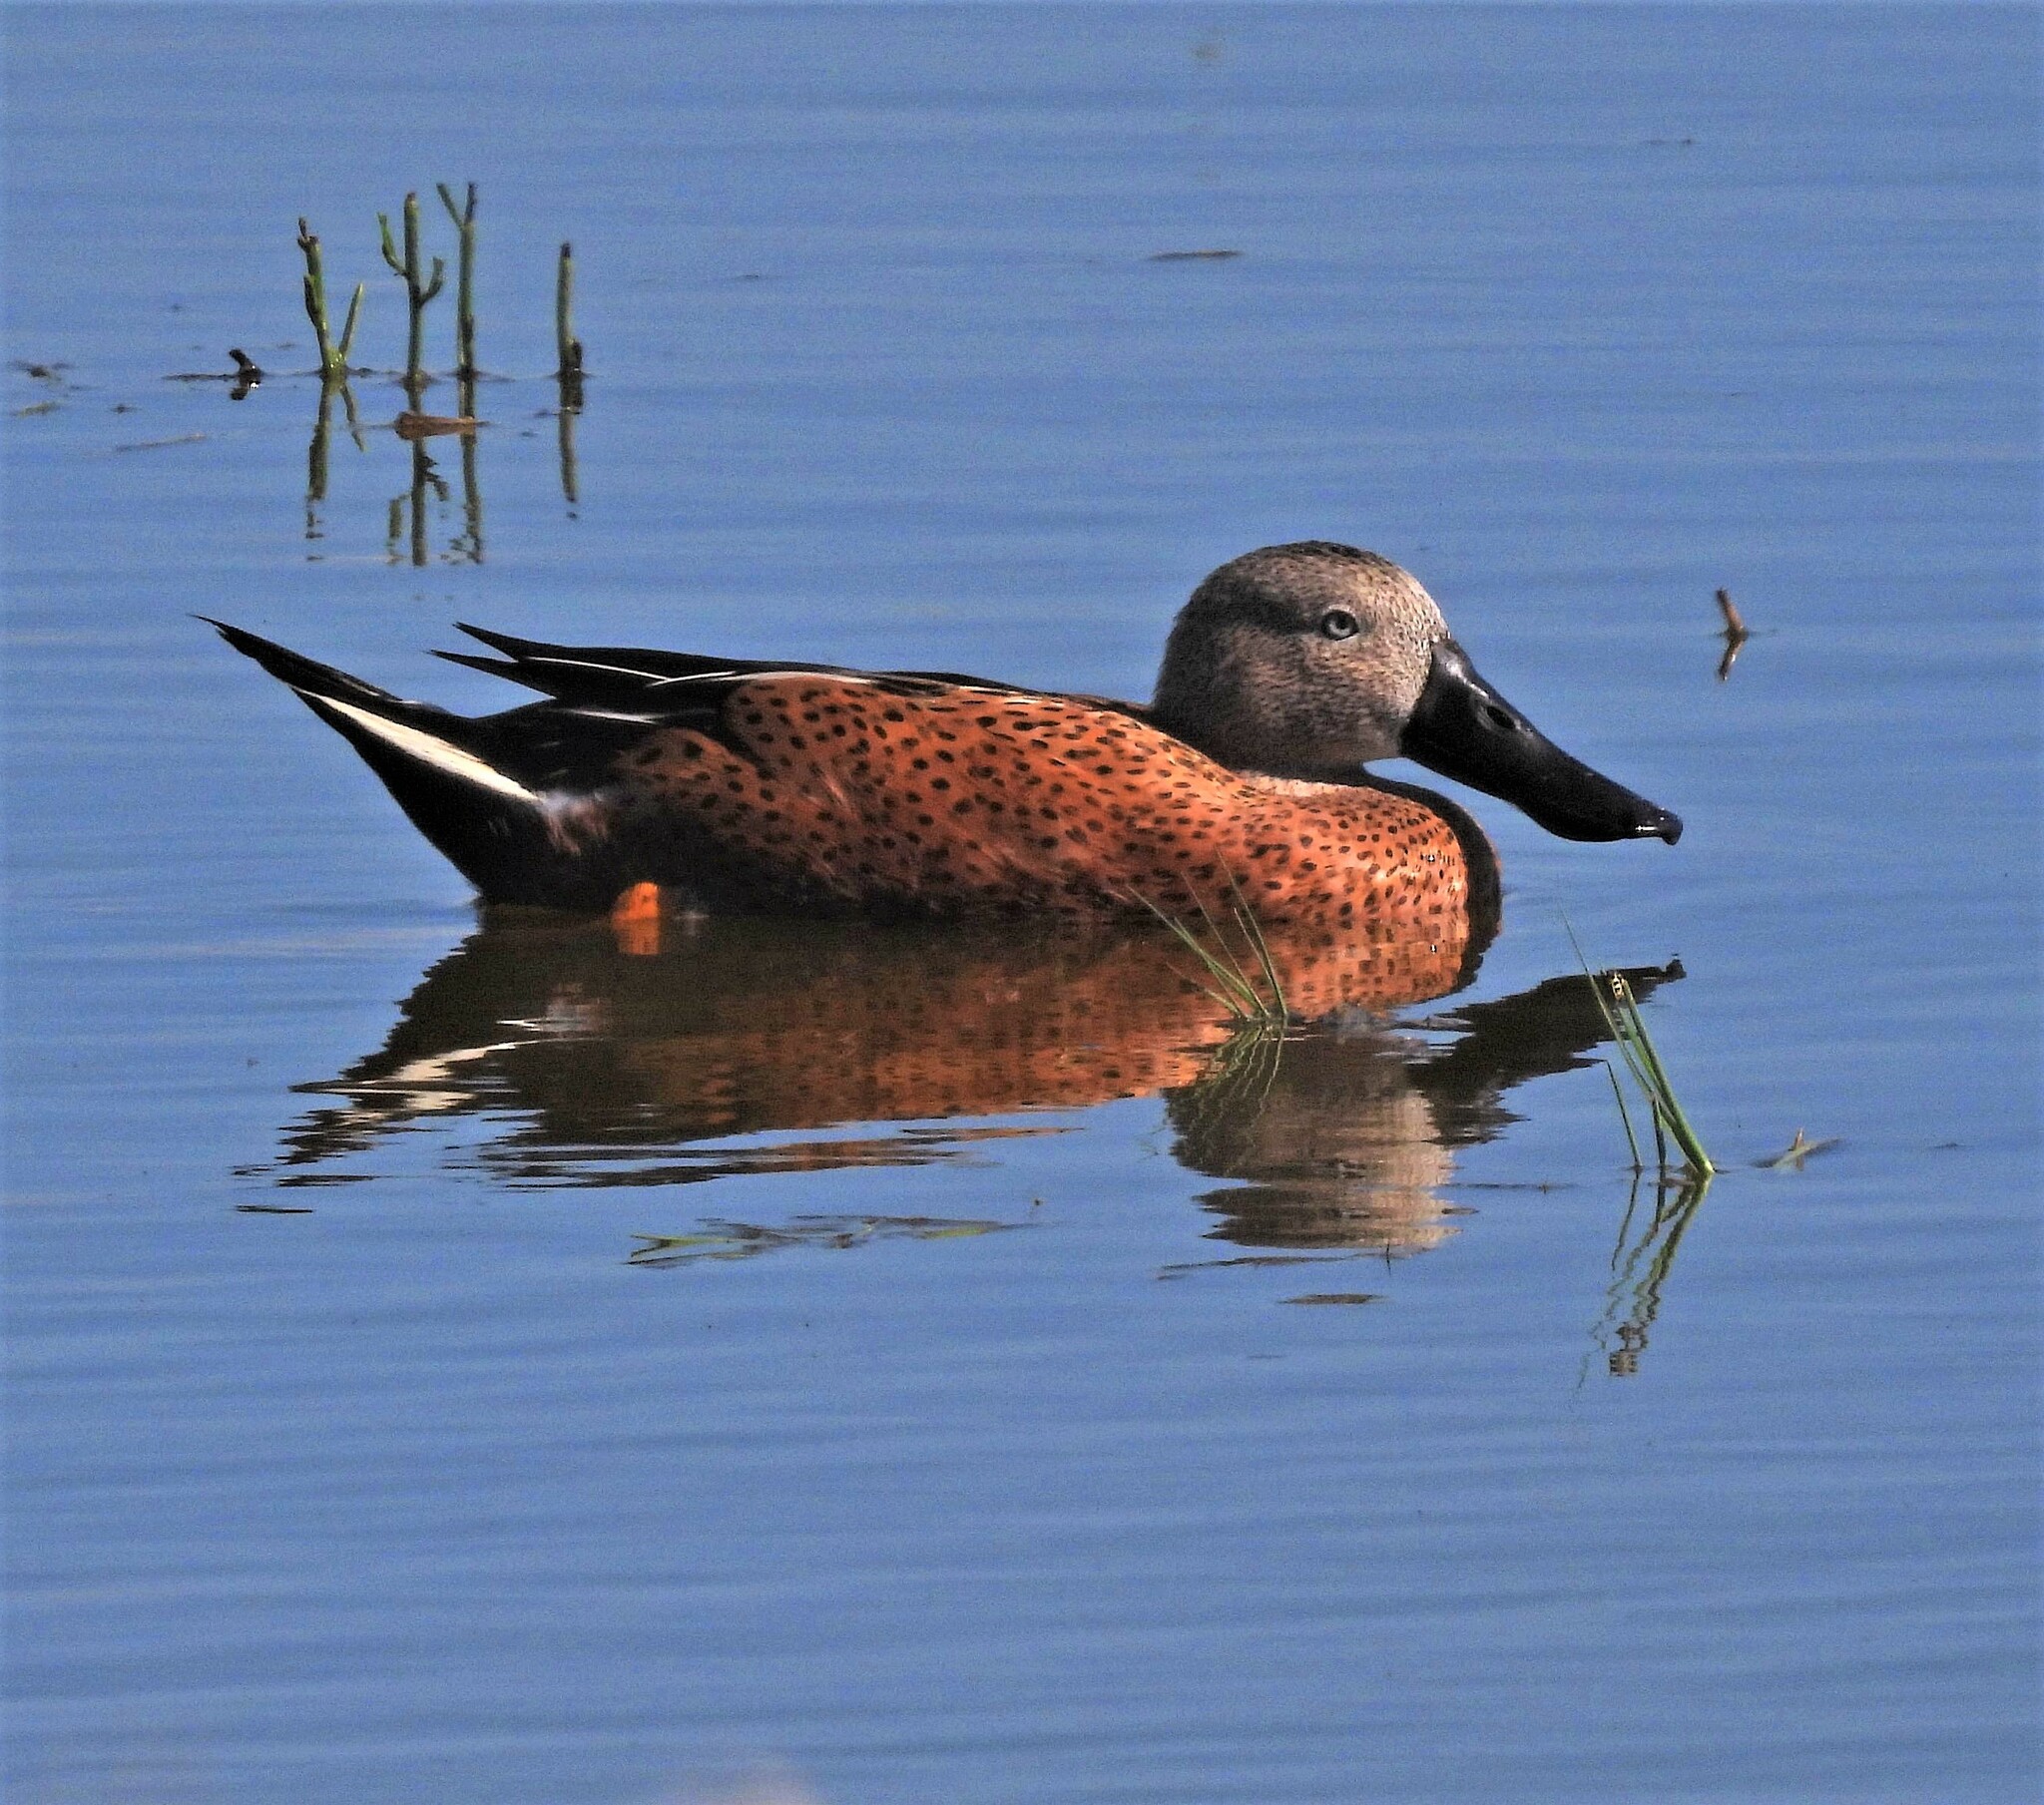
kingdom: Animalia
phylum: Chordata
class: Aves
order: Anseriformes
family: Anatidae
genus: Spatula
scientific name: Spatula platalea
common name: Red shoveler
